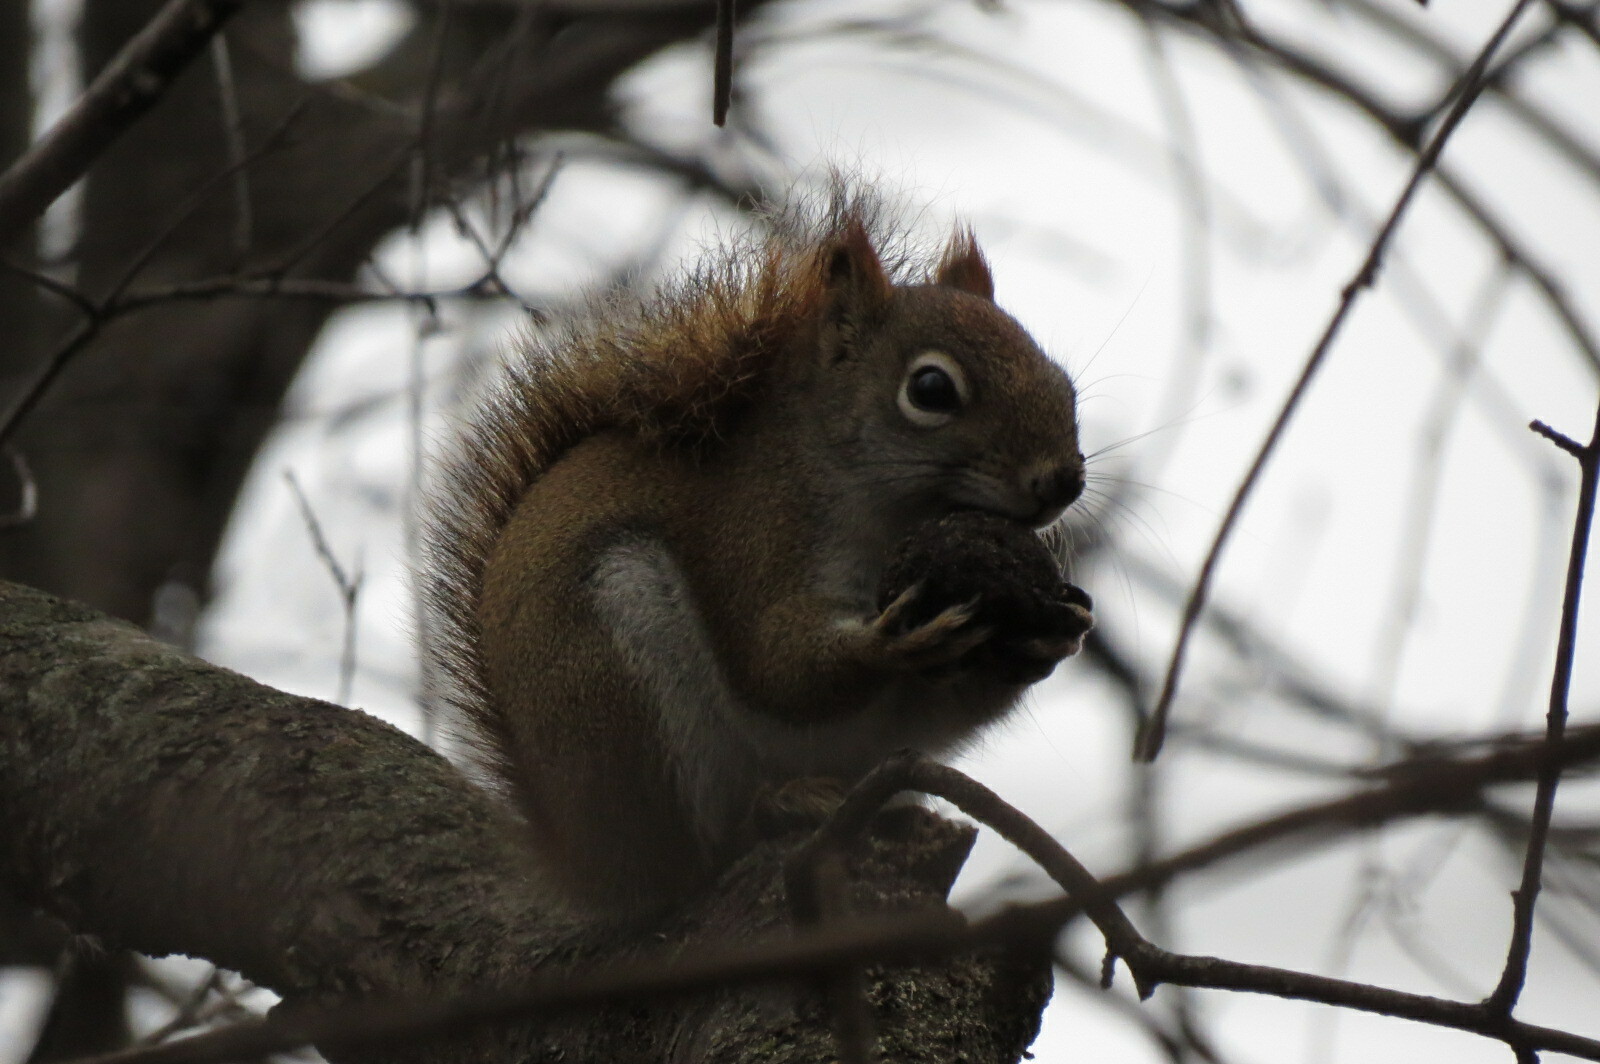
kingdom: Animalia
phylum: Chordata
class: Mammalia
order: Rodentia
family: Sciuridae
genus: Tamiasciurus
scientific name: Tamiasciurus hudsonicus
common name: Red squirrel
